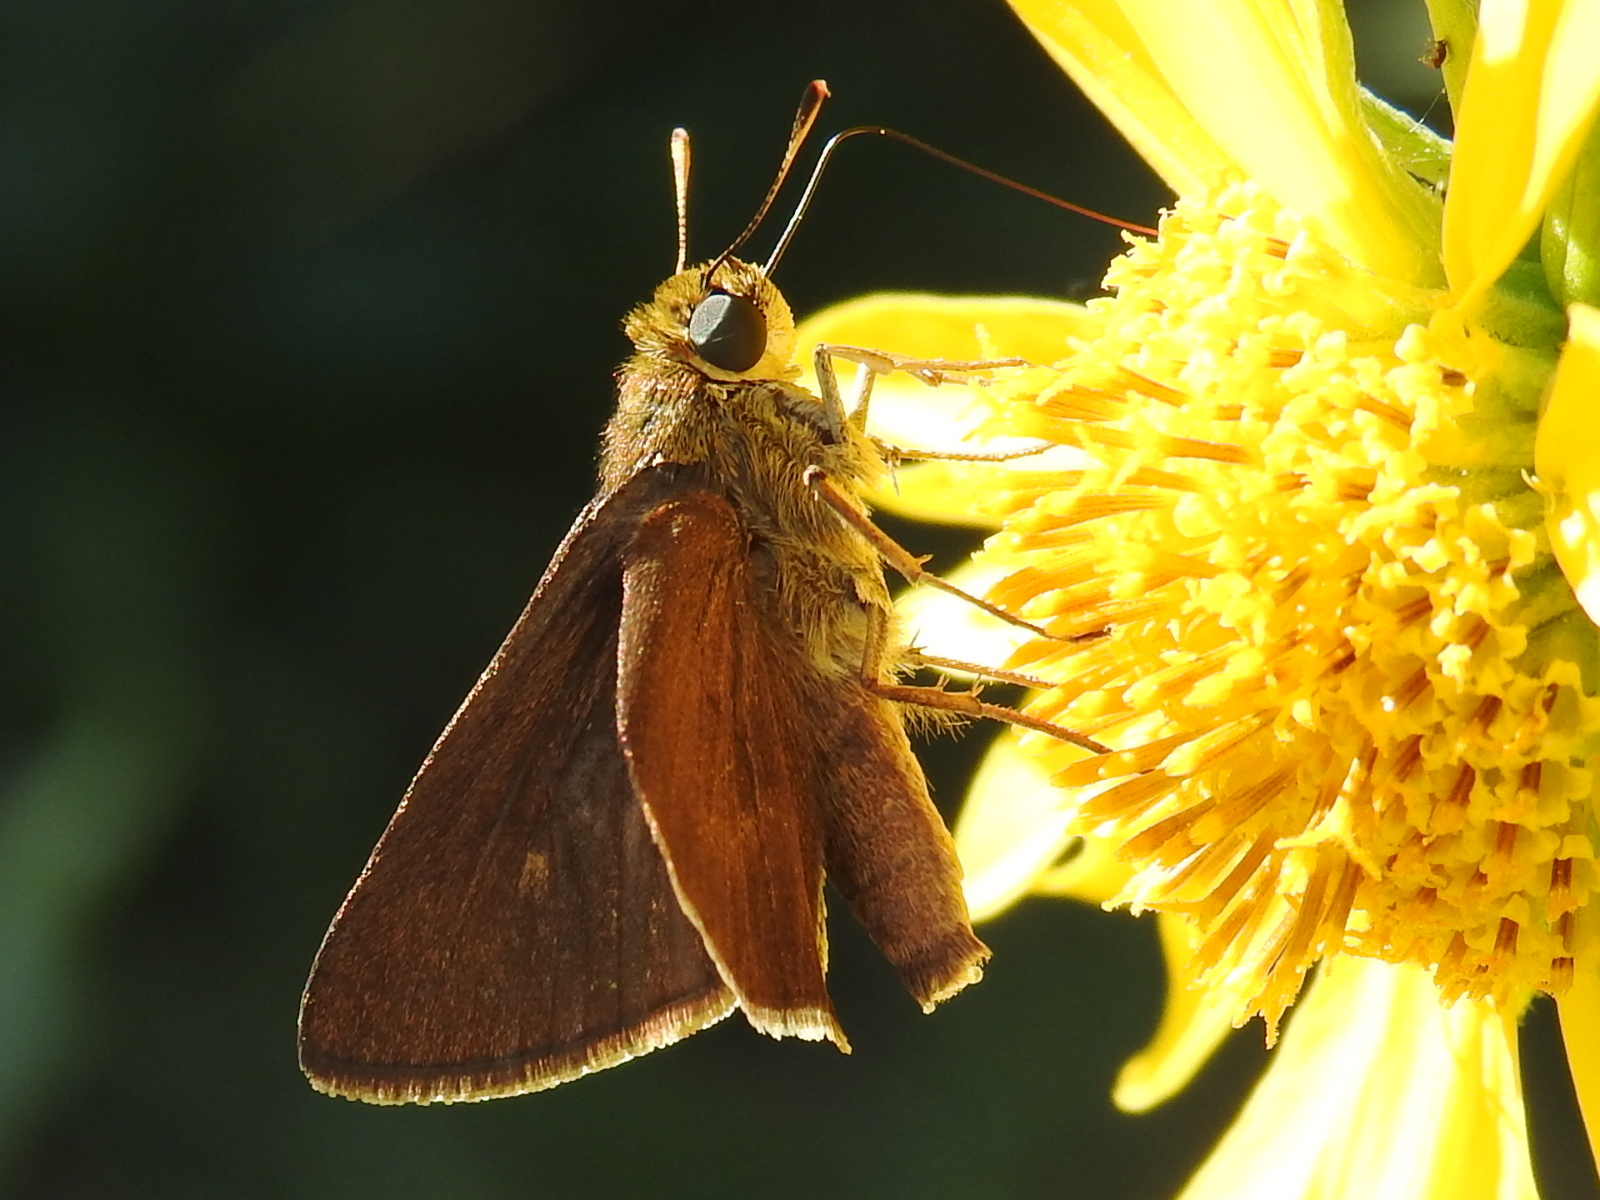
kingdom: Animalia
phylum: Arthropoda
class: Insecta
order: Lepidoptera
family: Hesperiidae
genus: Euphyes
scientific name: Euphyes vestris
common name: Dun skipper
